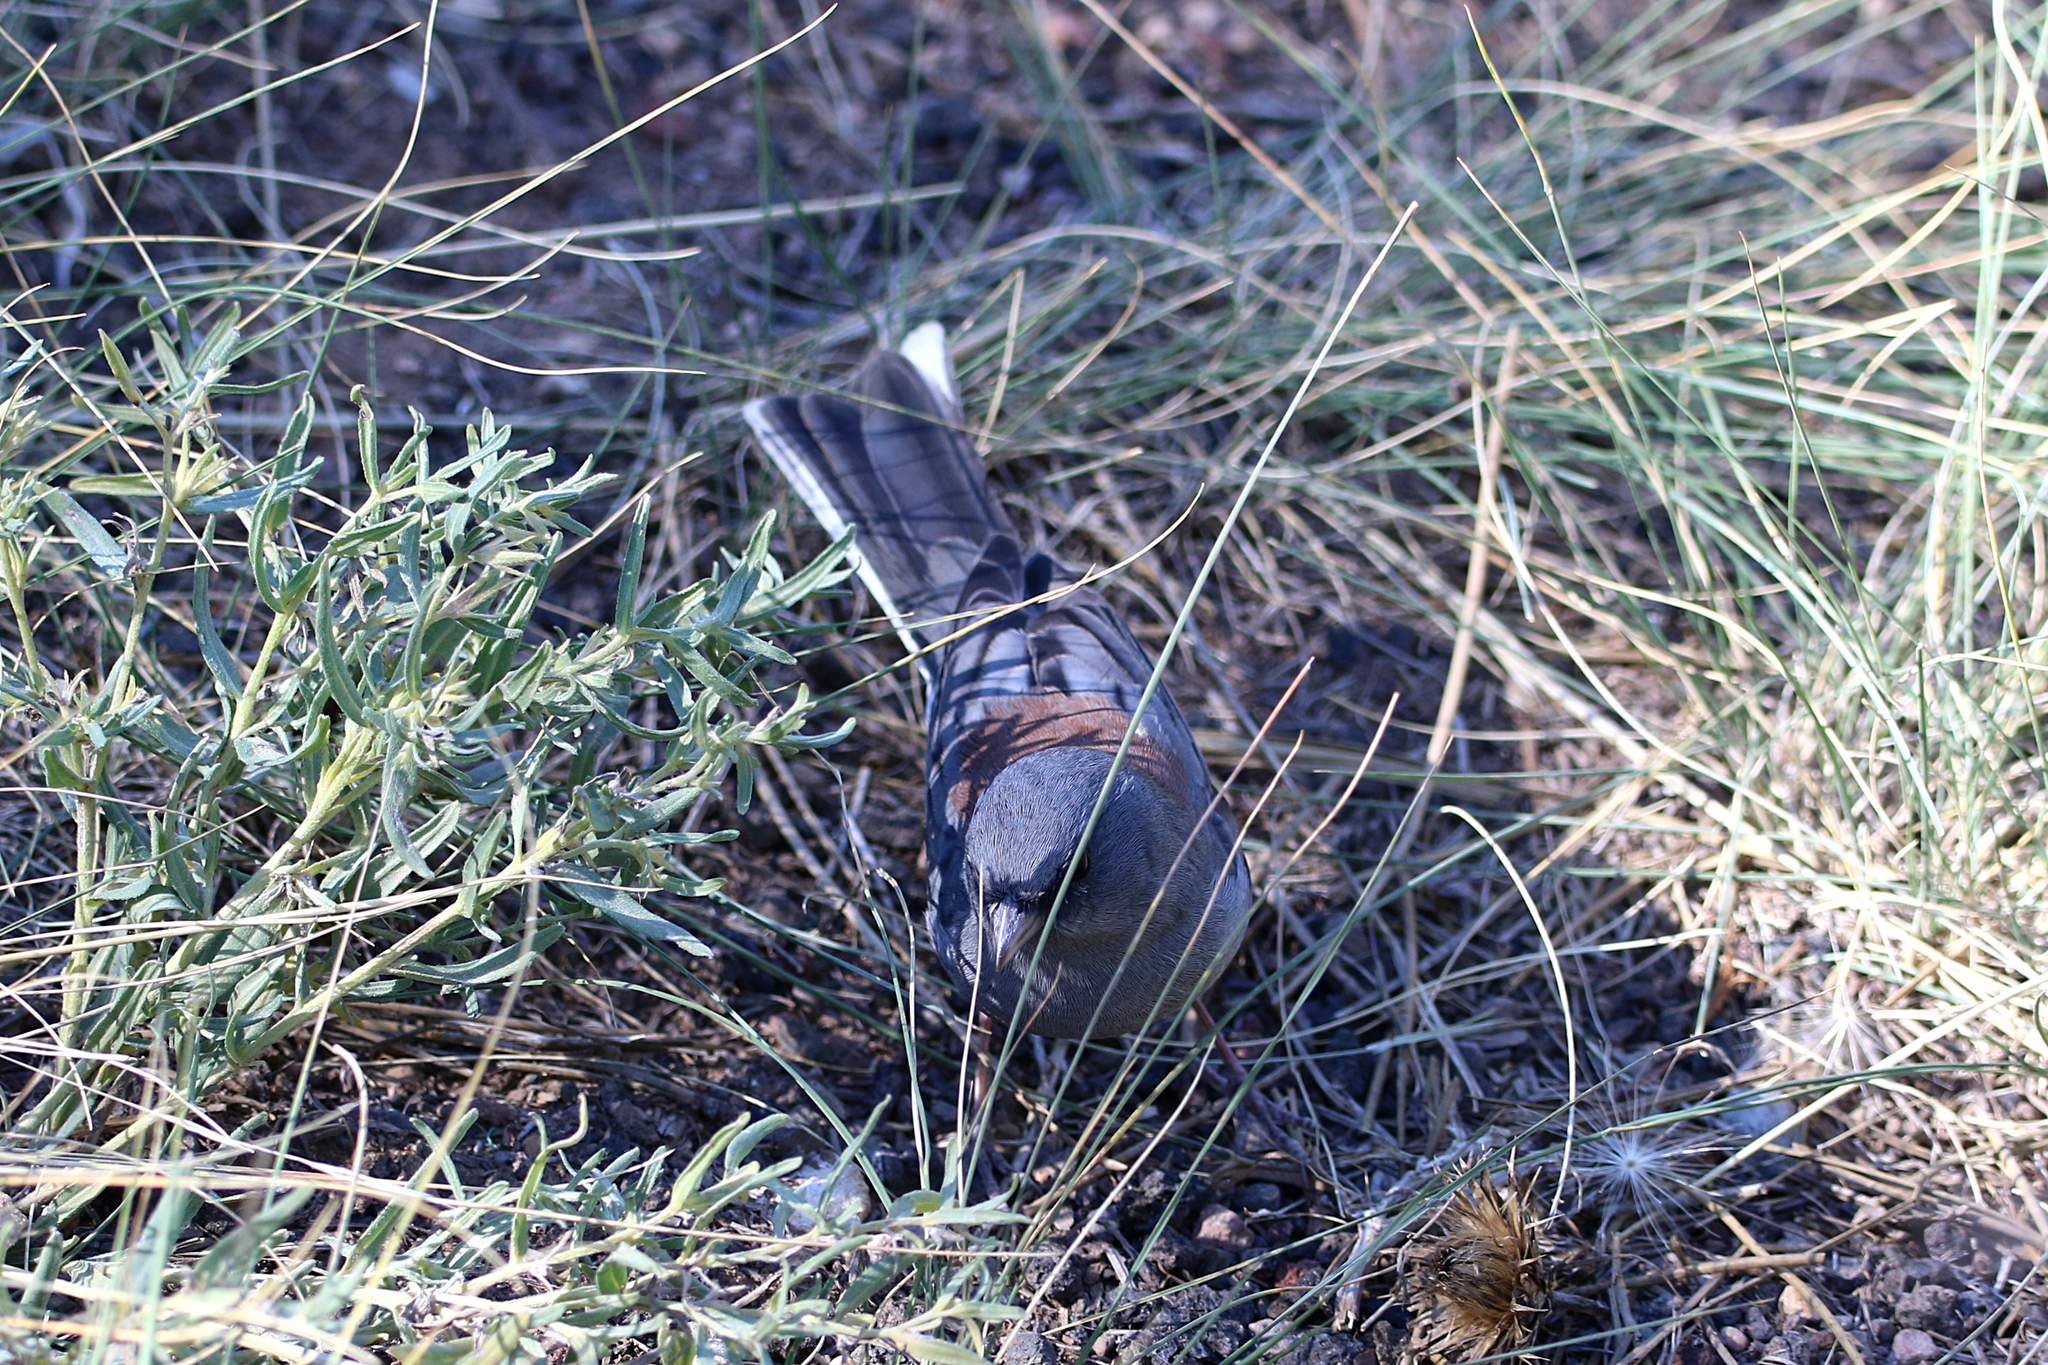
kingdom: Animalia
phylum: Chordata
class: Aves
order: Passeriformes
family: Passerellidae
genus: Junco
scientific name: Junco hyemalis
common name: Dark-eyed junco
